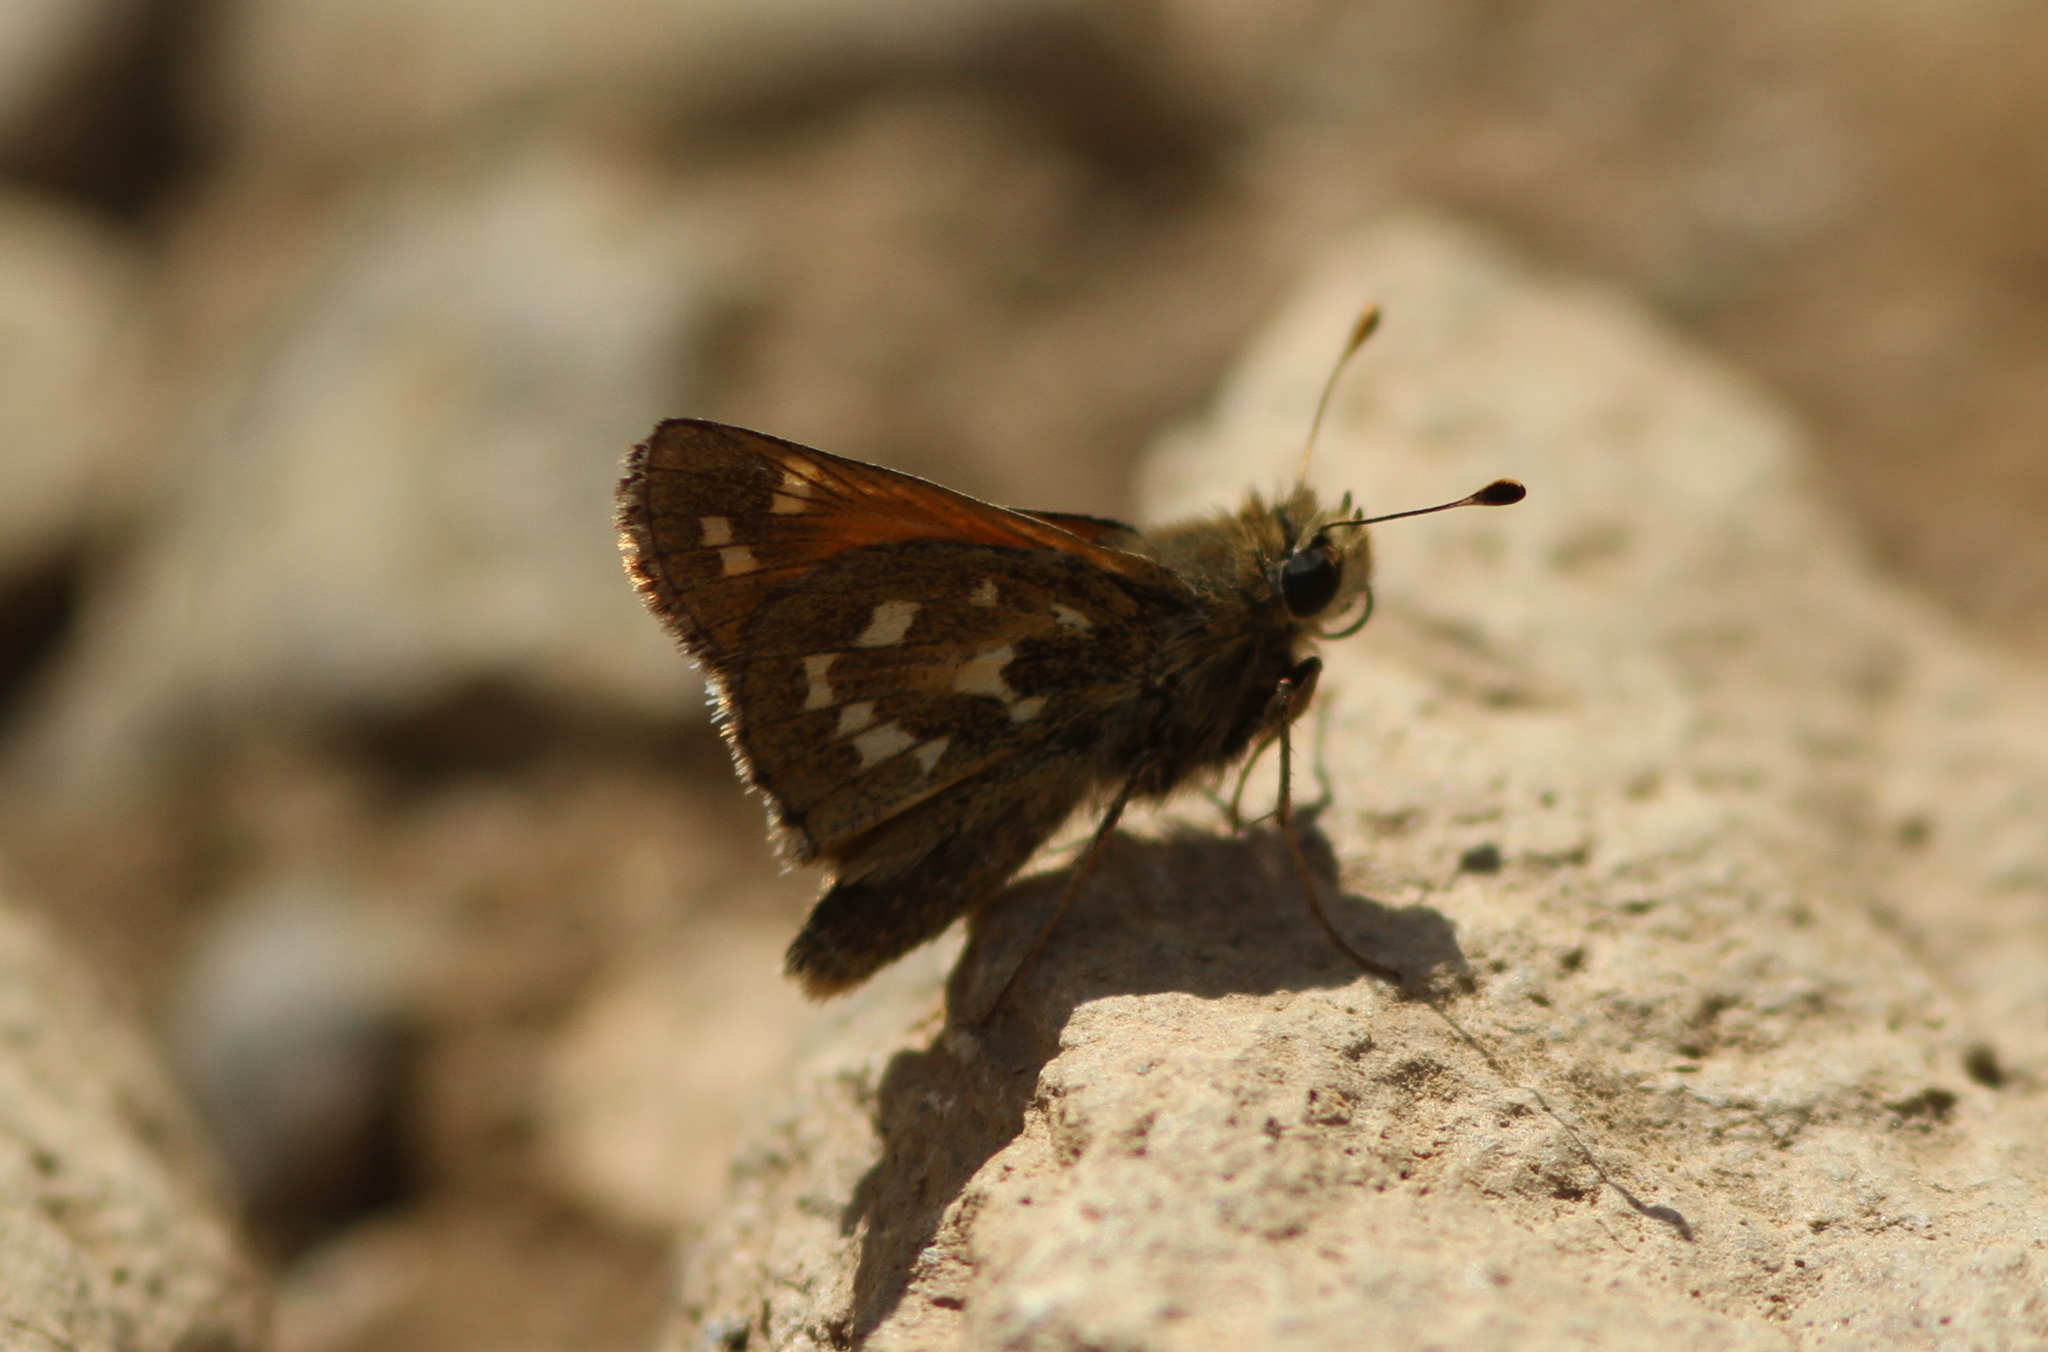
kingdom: Animalia
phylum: Arthropoda
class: Insecta
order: Lepidoptera
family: Hesperiidae
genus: Hesperia
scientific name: Hesperia comma
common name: Common branded skipper
